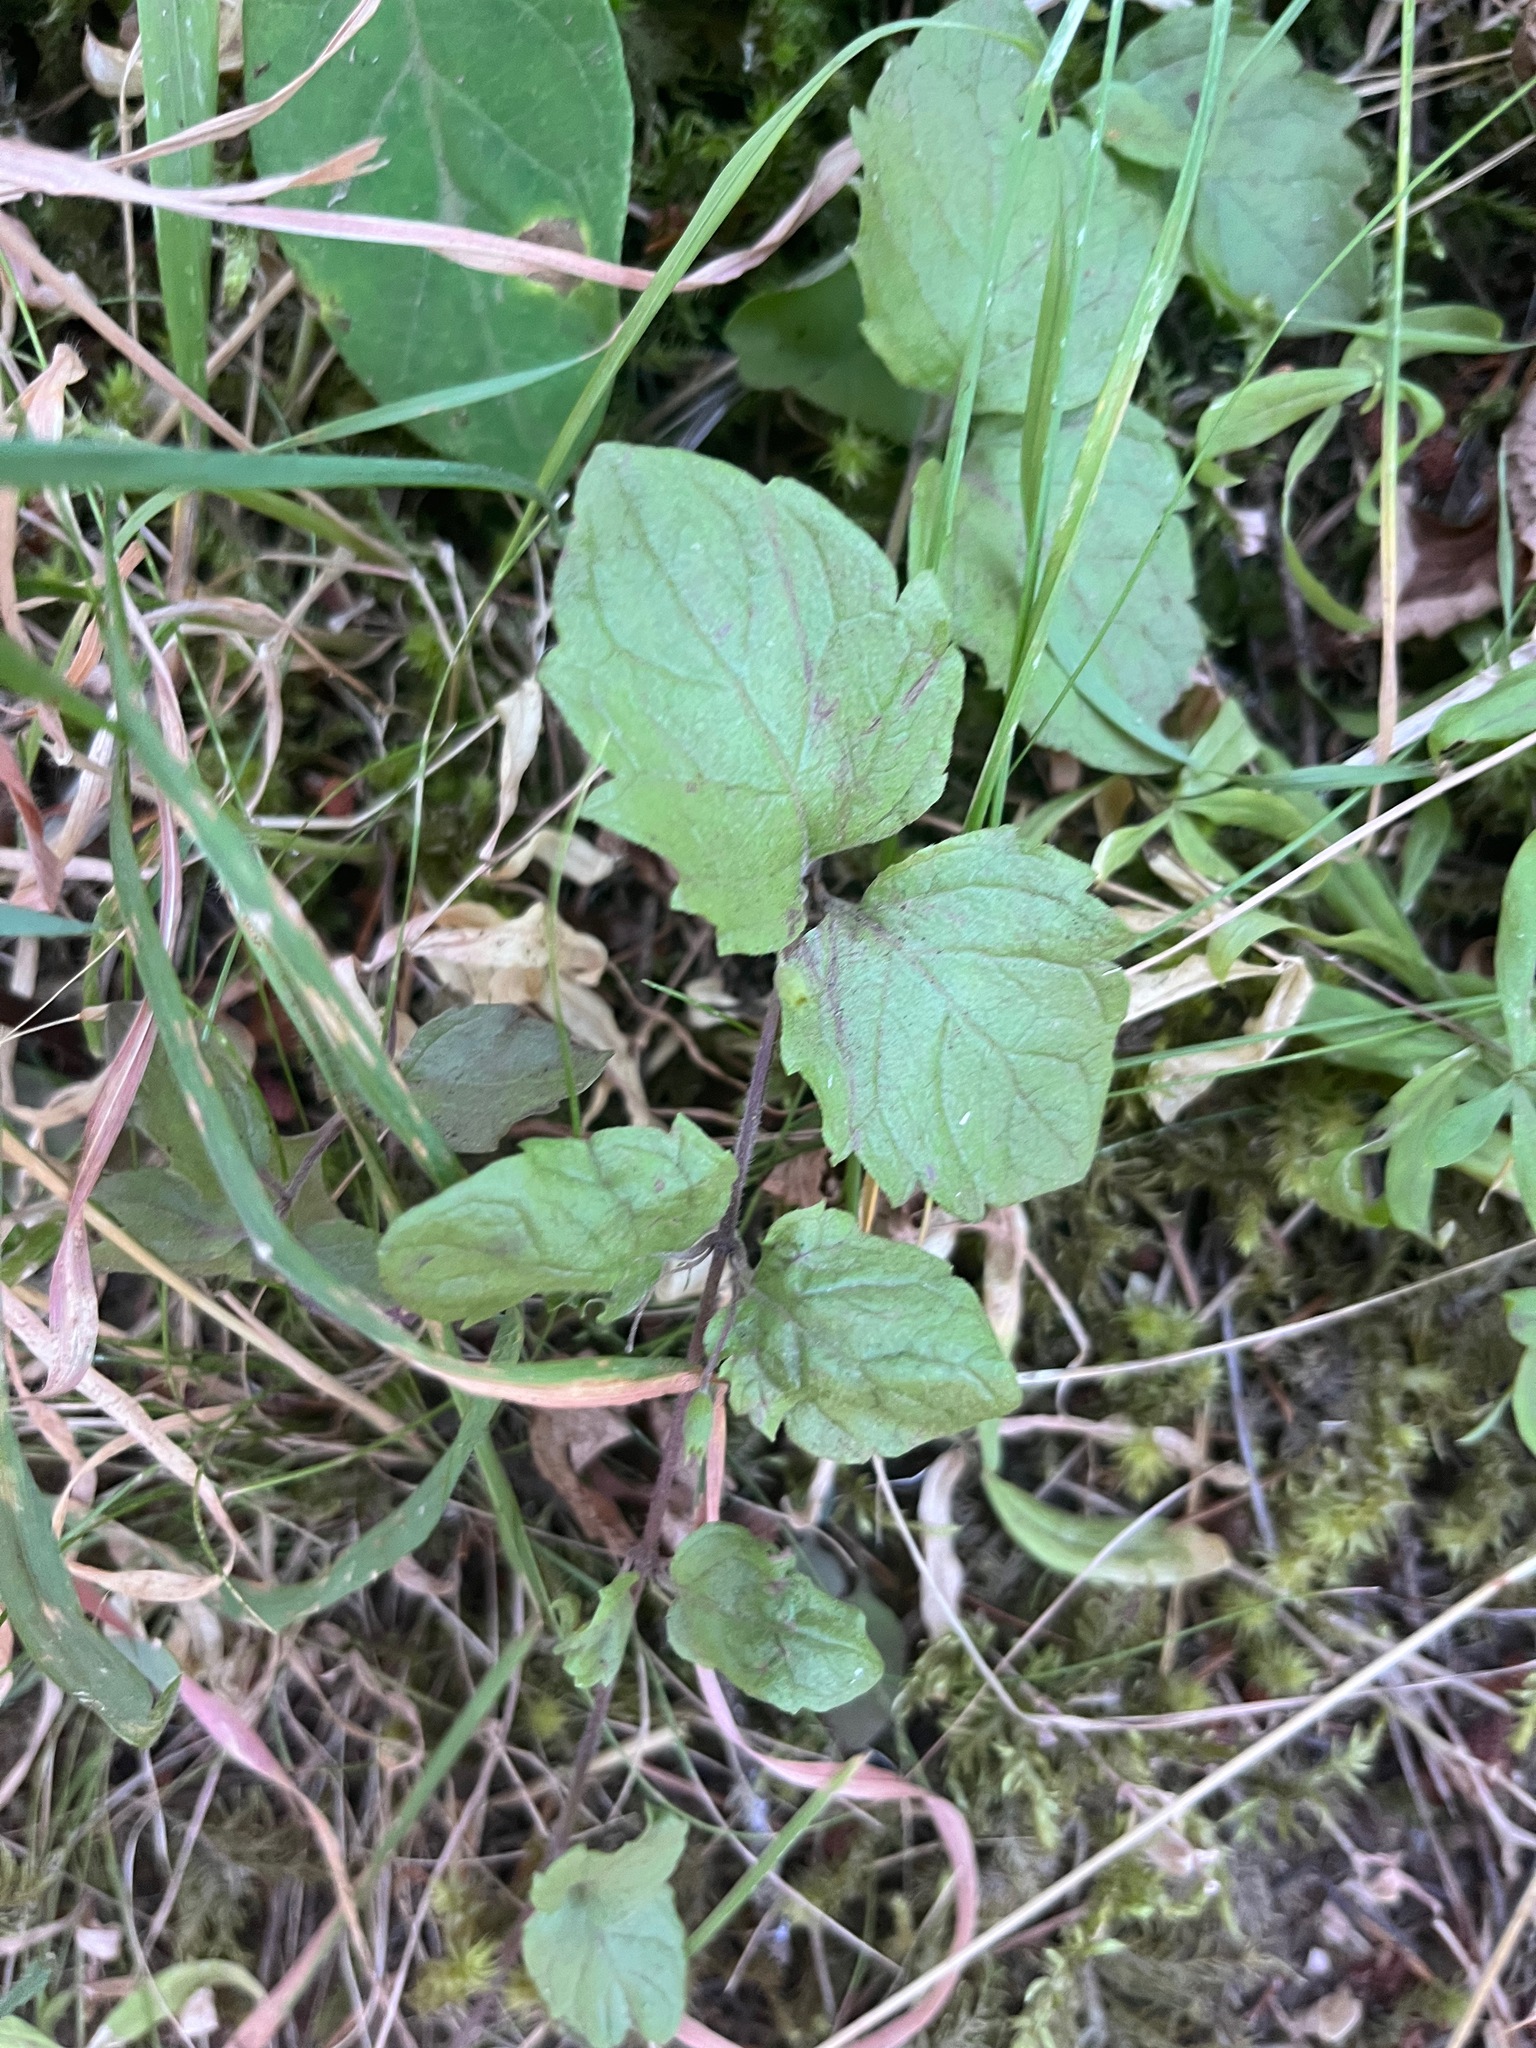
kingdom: Plantae
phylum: Tracheophyta
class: Magnoliopsida
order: Lamiales
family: Lamiaceae
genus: Micromeria
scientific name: Micromeria douglasii
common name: Yerba buena
